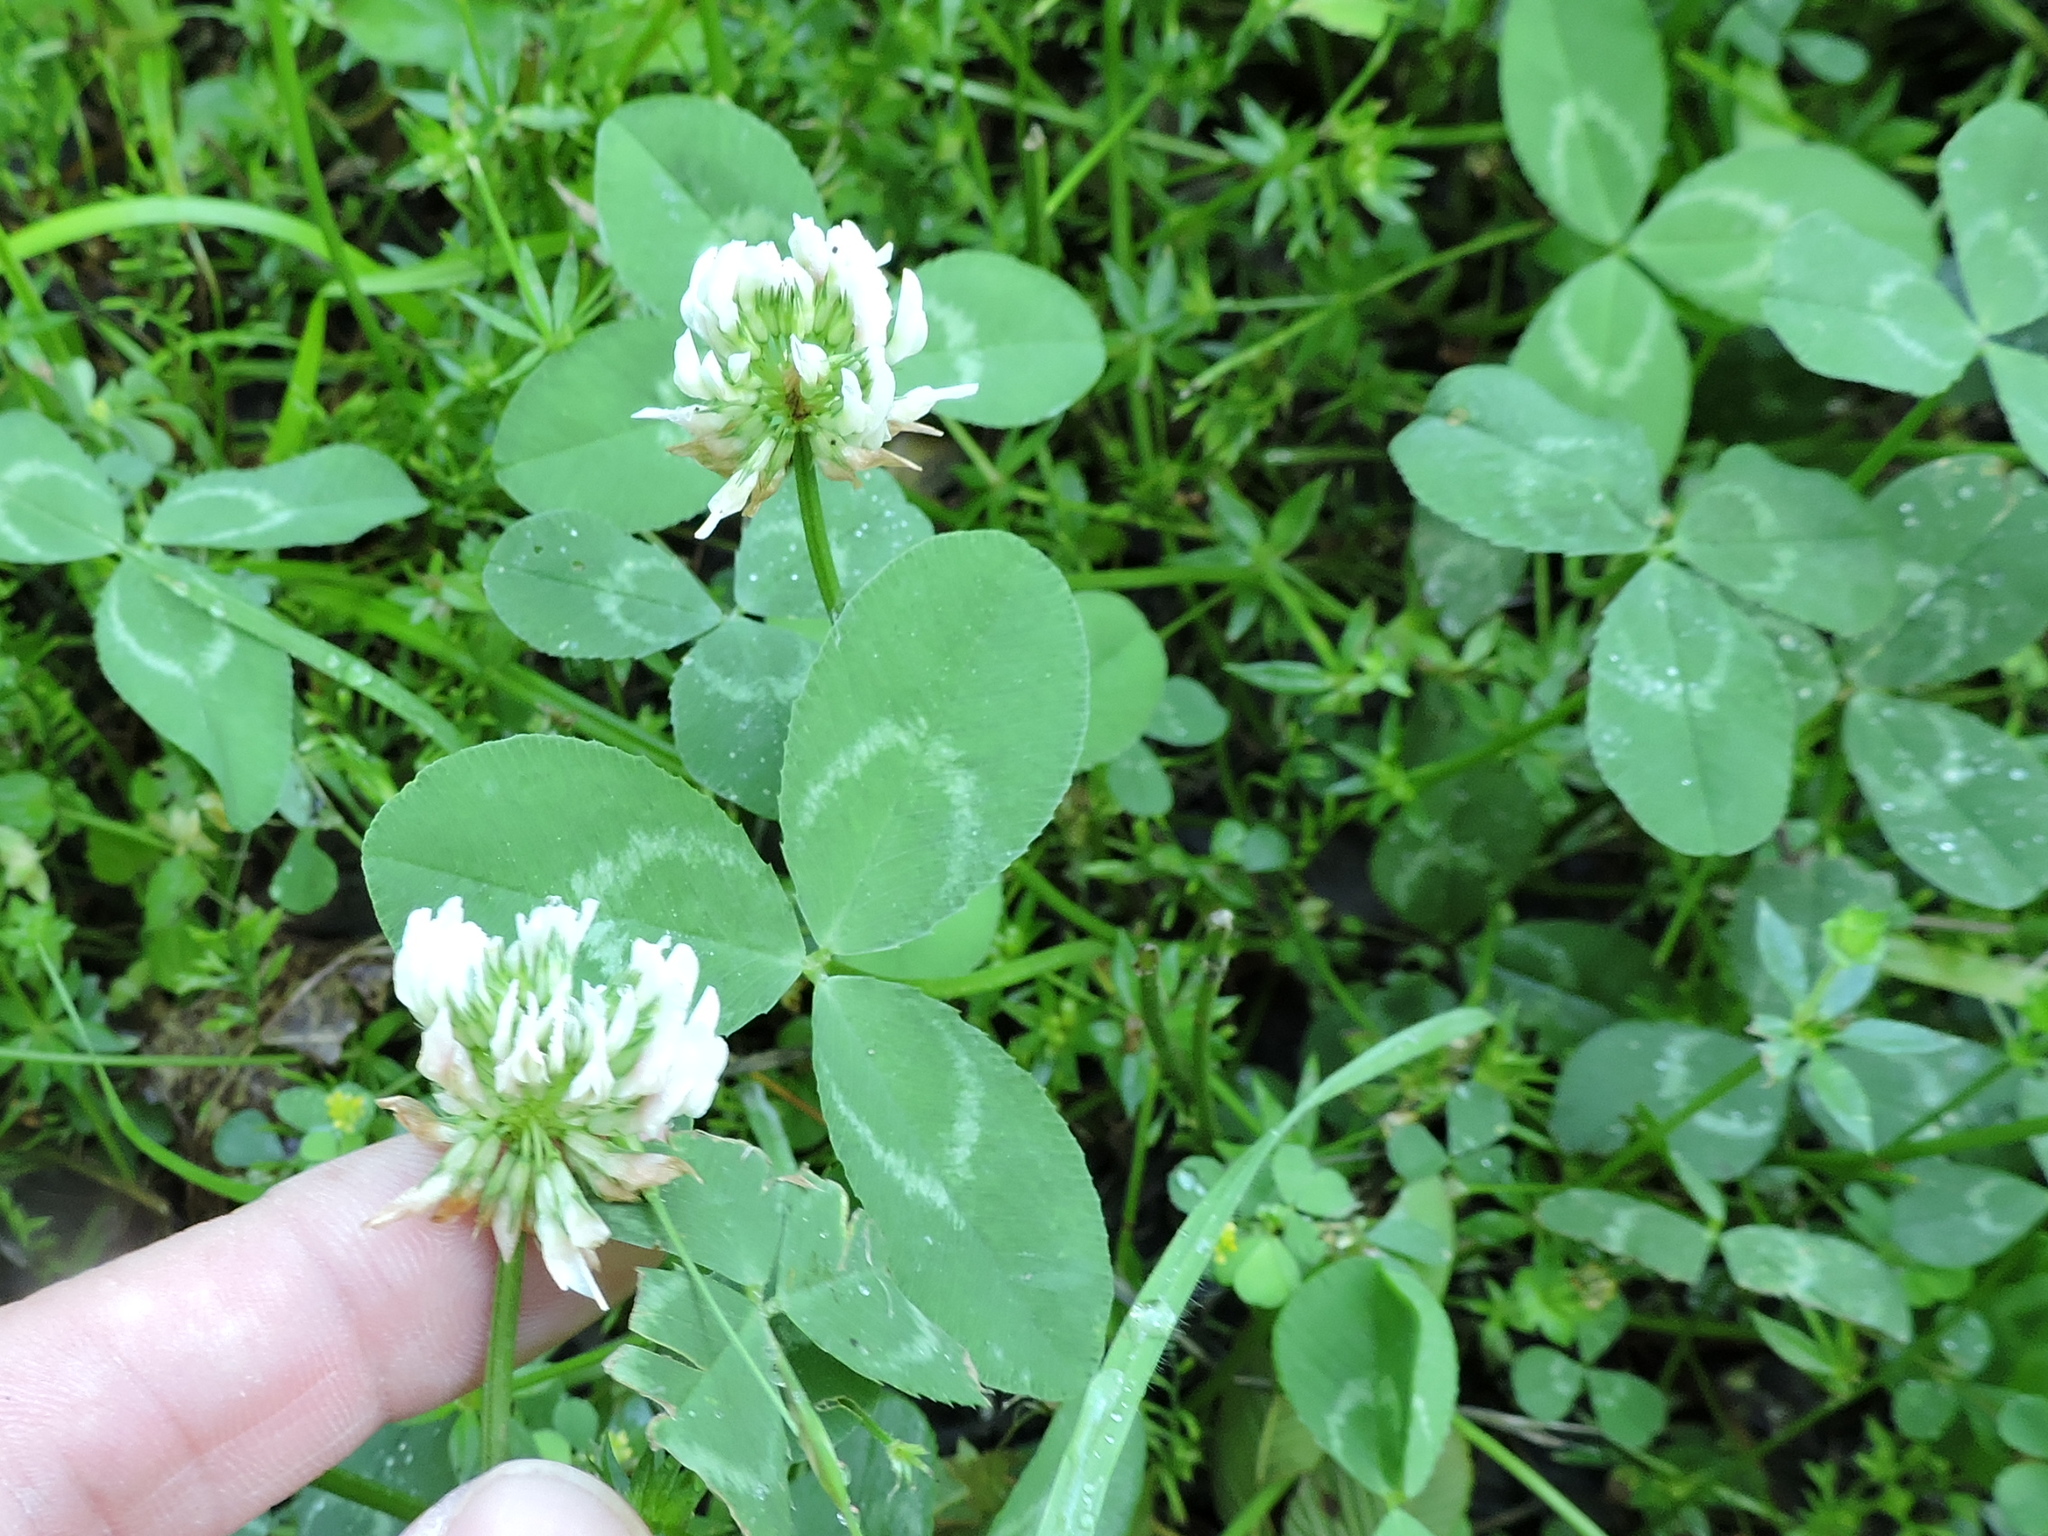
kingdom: Plantae
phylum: Tracheophyta
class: Magnoliopsida
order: Fabales
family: Fabaceae
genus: Trifolium
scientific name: Trifolium repens
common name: White clover
